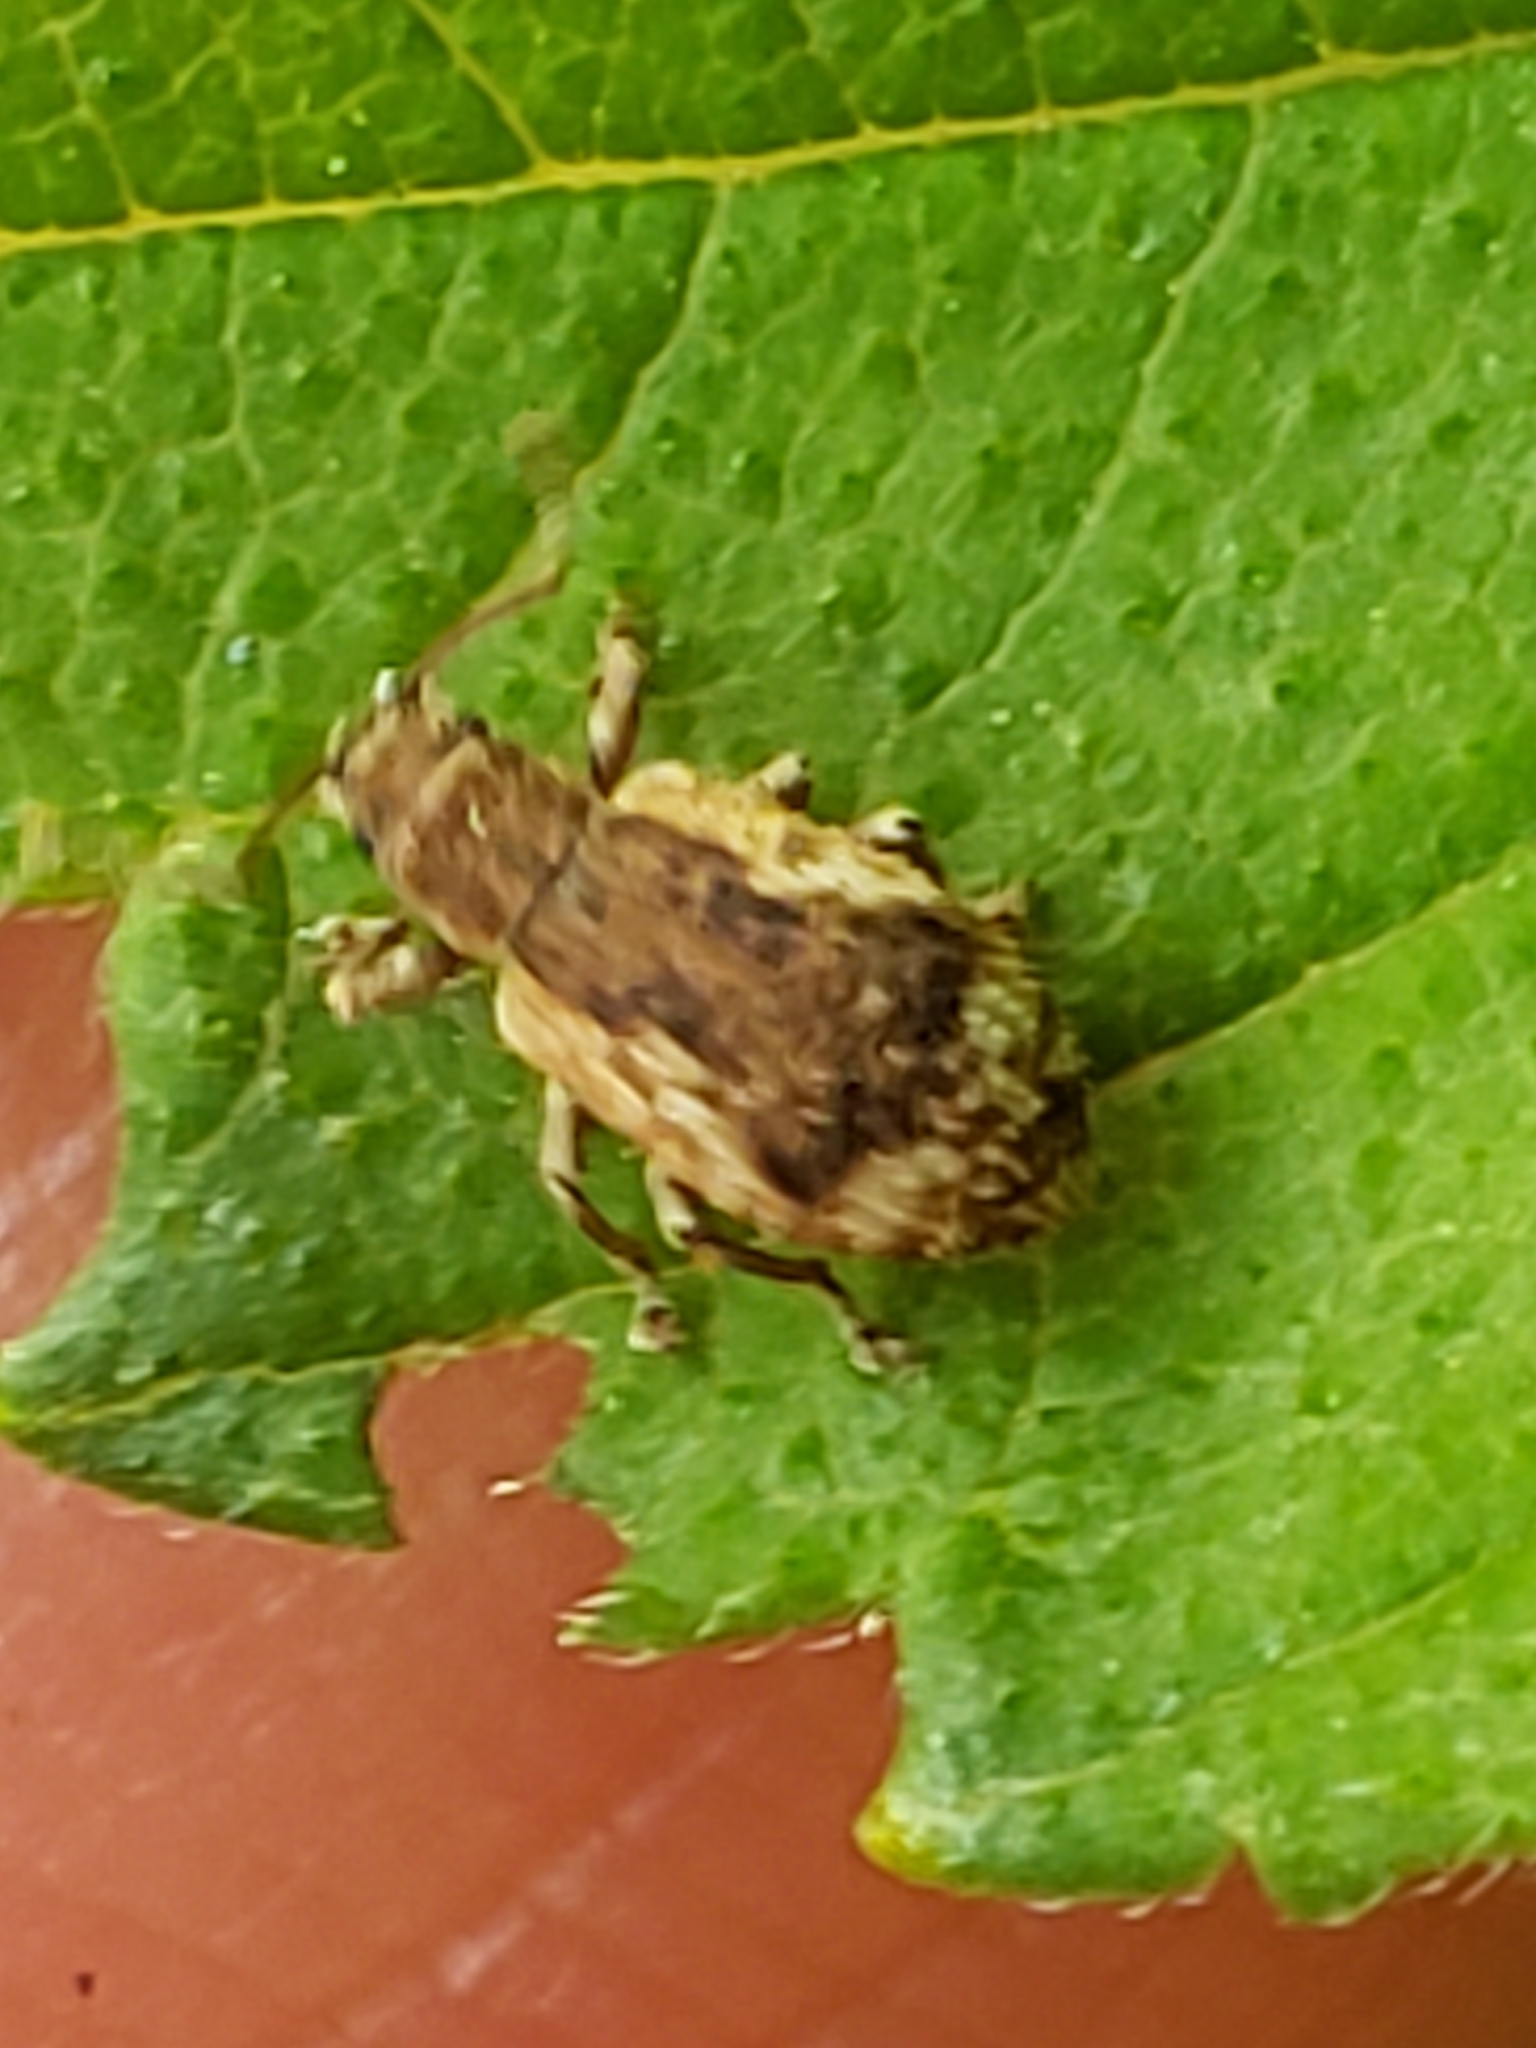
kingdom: Animalia
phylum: Arthropoda
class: Insecta
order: Coleoptera
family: Curculionidae
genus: Pseudoedophrys
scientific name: Pseudoedophrys hilleri
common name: Weevil
